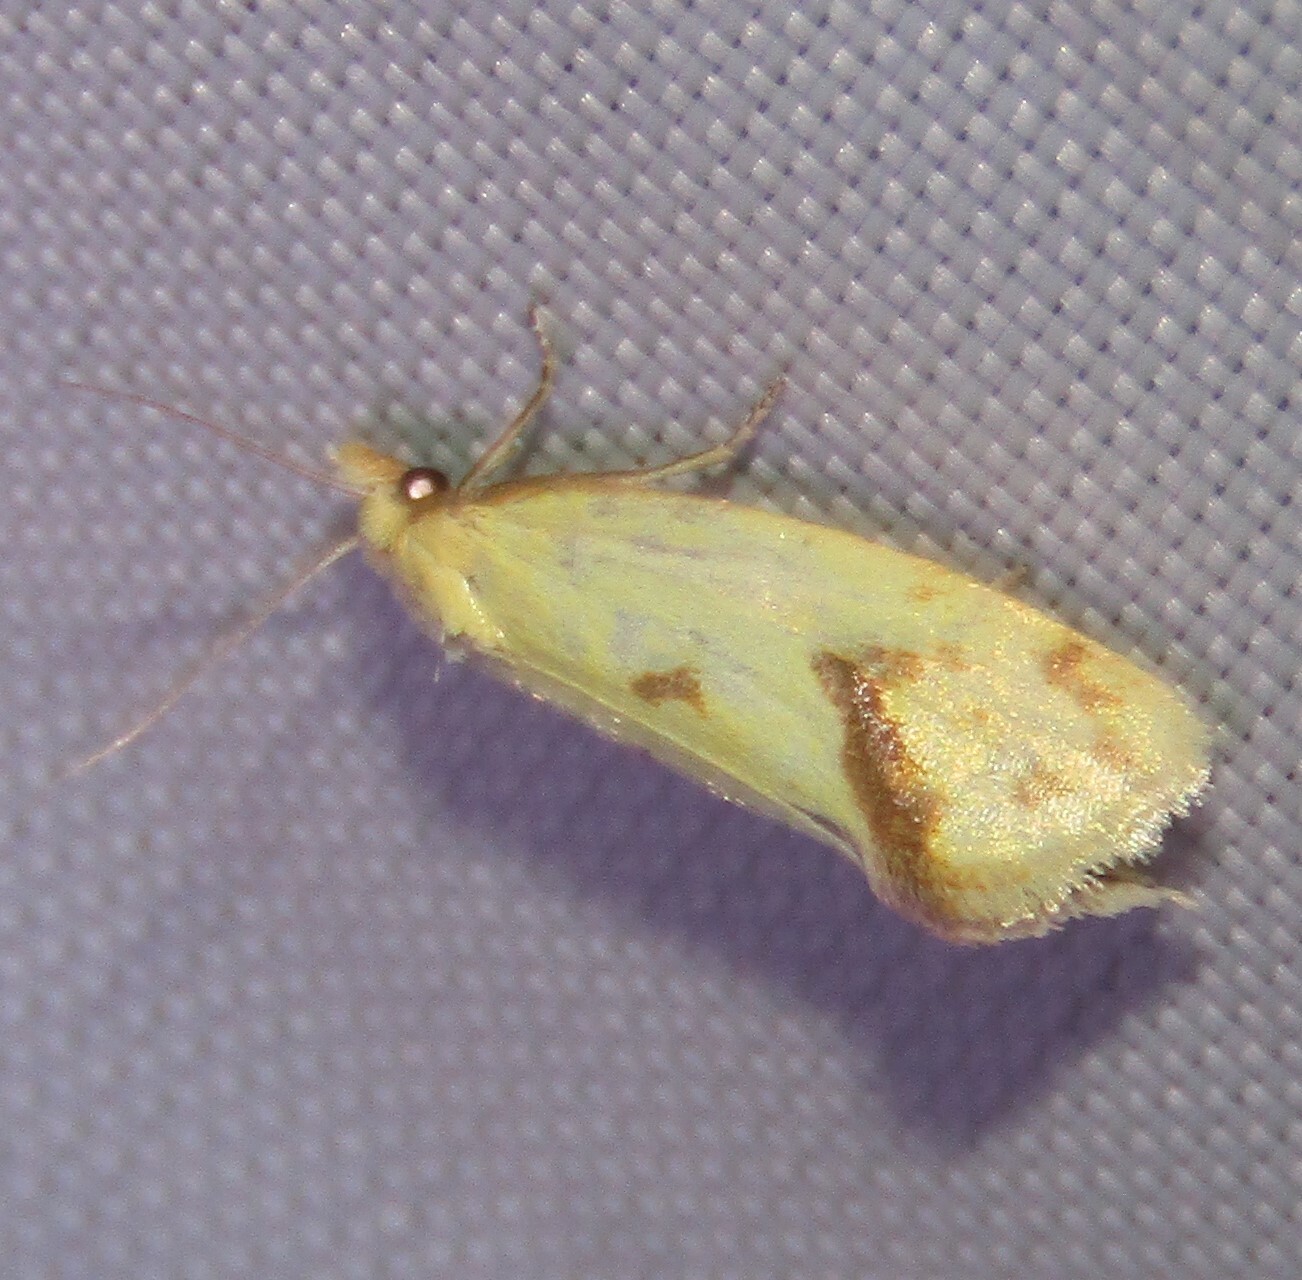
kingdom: Animalia
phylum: Arthropoda
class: Insecta
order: Lepidoptera
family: Tortricidae
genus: Agapeta
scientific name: Agapeta hamana
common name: Common yellow conch
